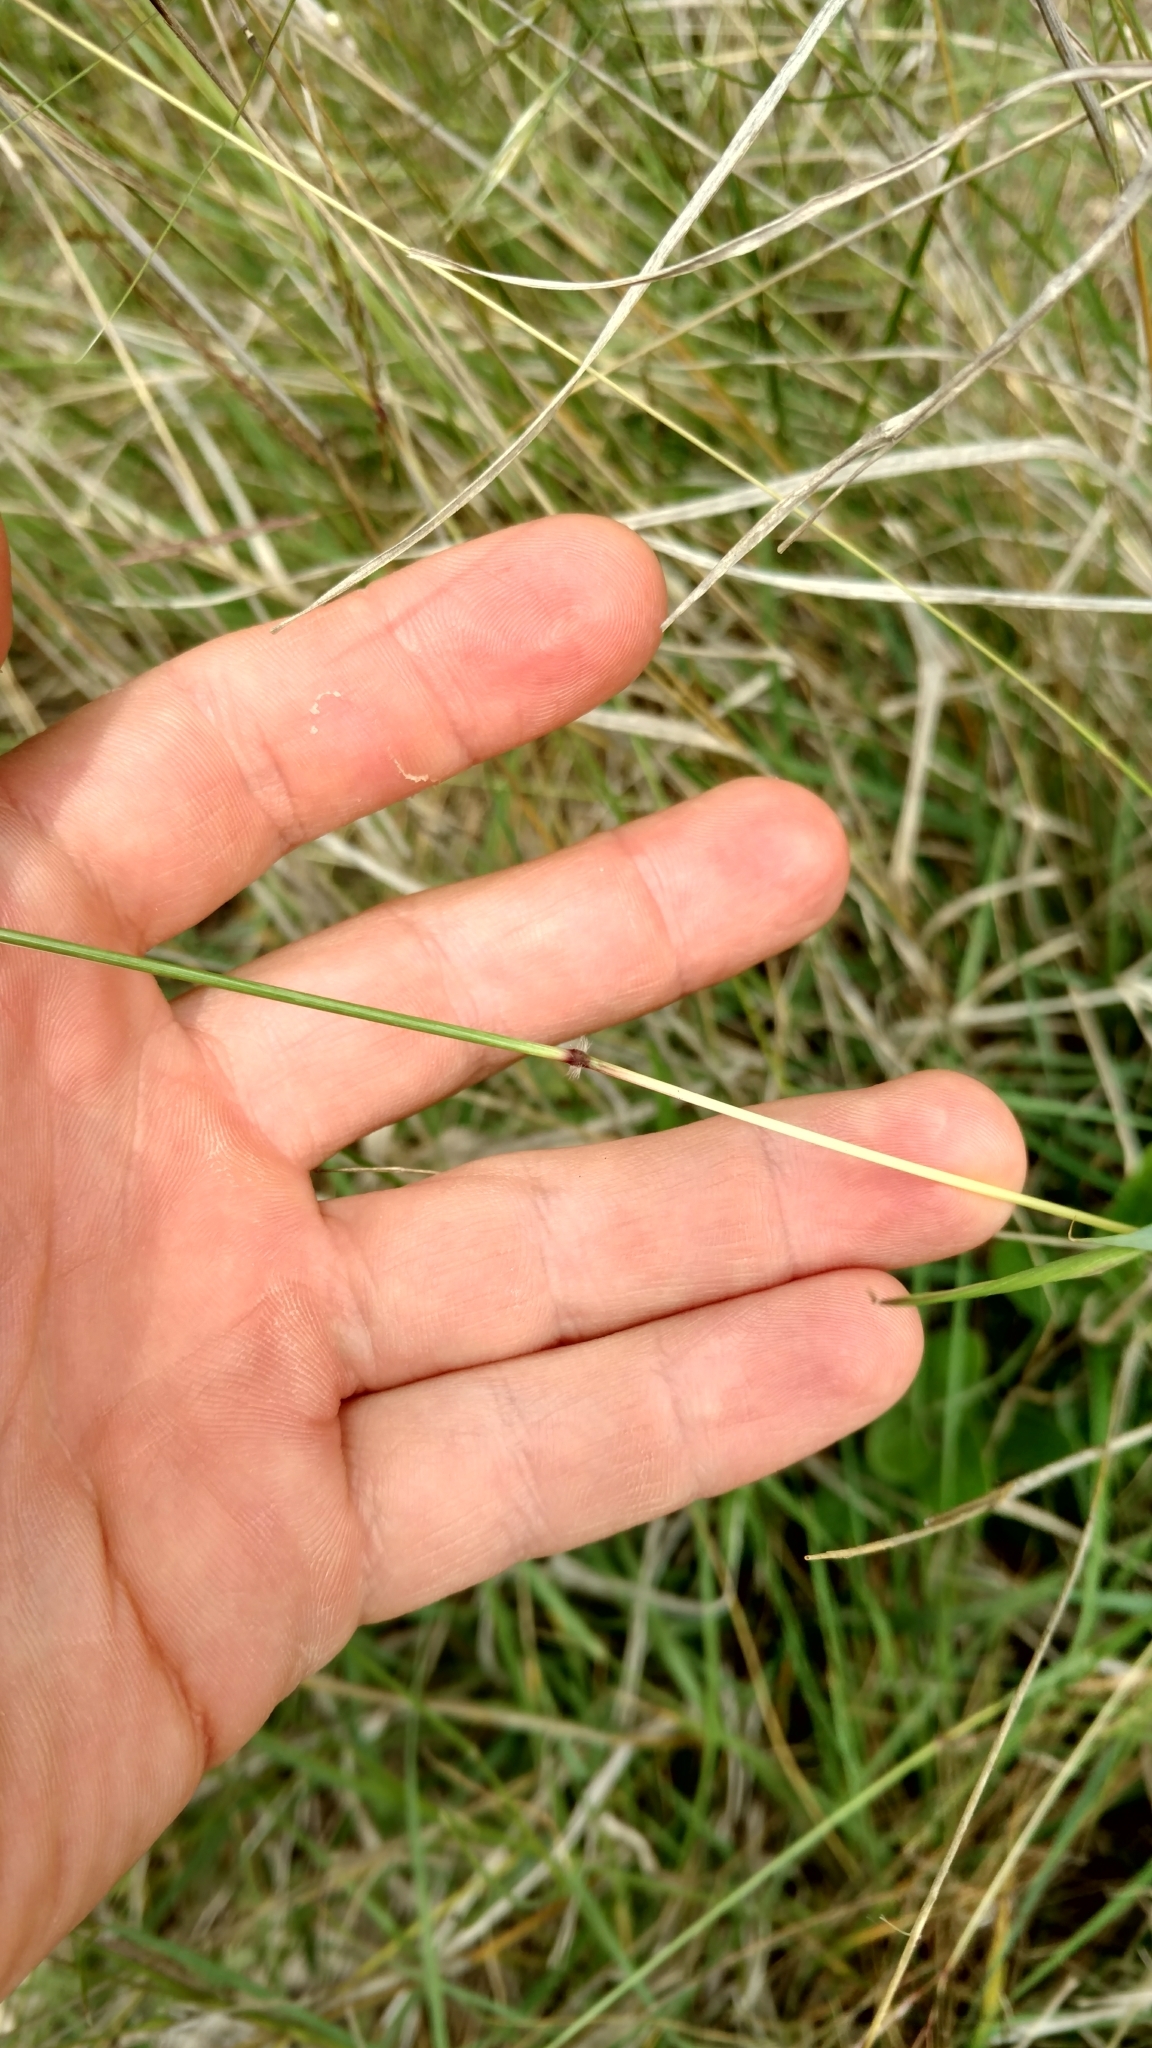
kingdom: Plantae
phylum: Tracheophyta
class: Liliopsida
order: Poales
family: Poaceae
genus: Bothriochloa
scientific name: Bothriochloa ischaemum
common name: Yellow bluestem
